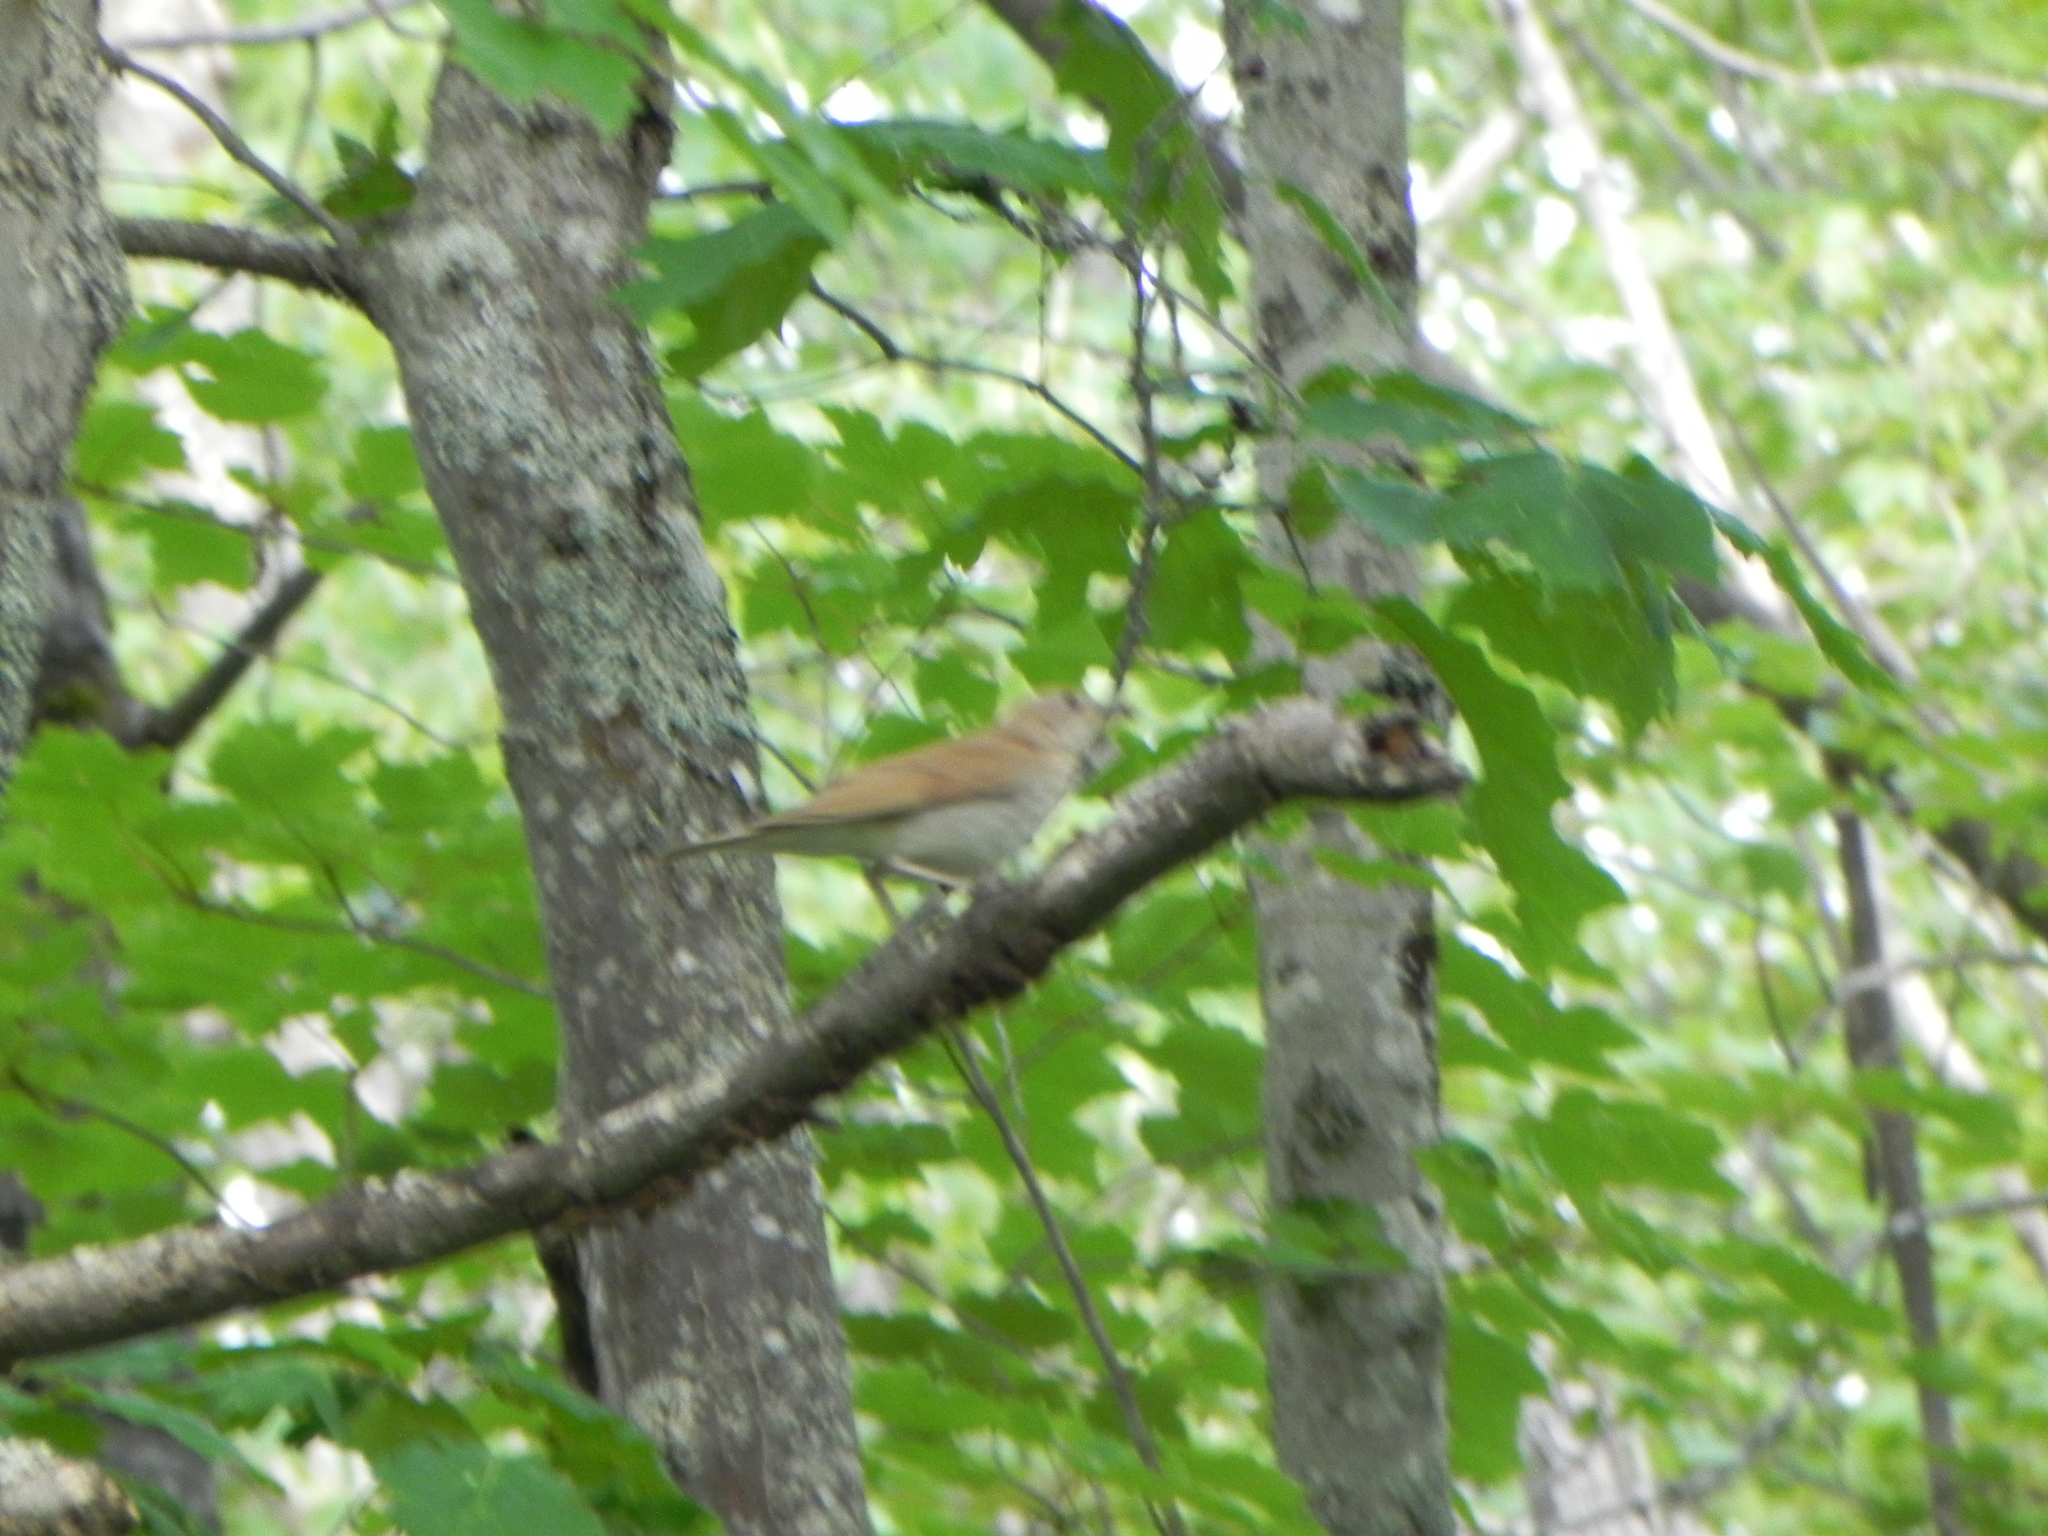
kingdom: Animalia
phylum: Chordata
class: Aves
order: Passeriformes
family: Turdidae
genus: Catharus
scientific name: Catharus fuscescens
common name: Veery
